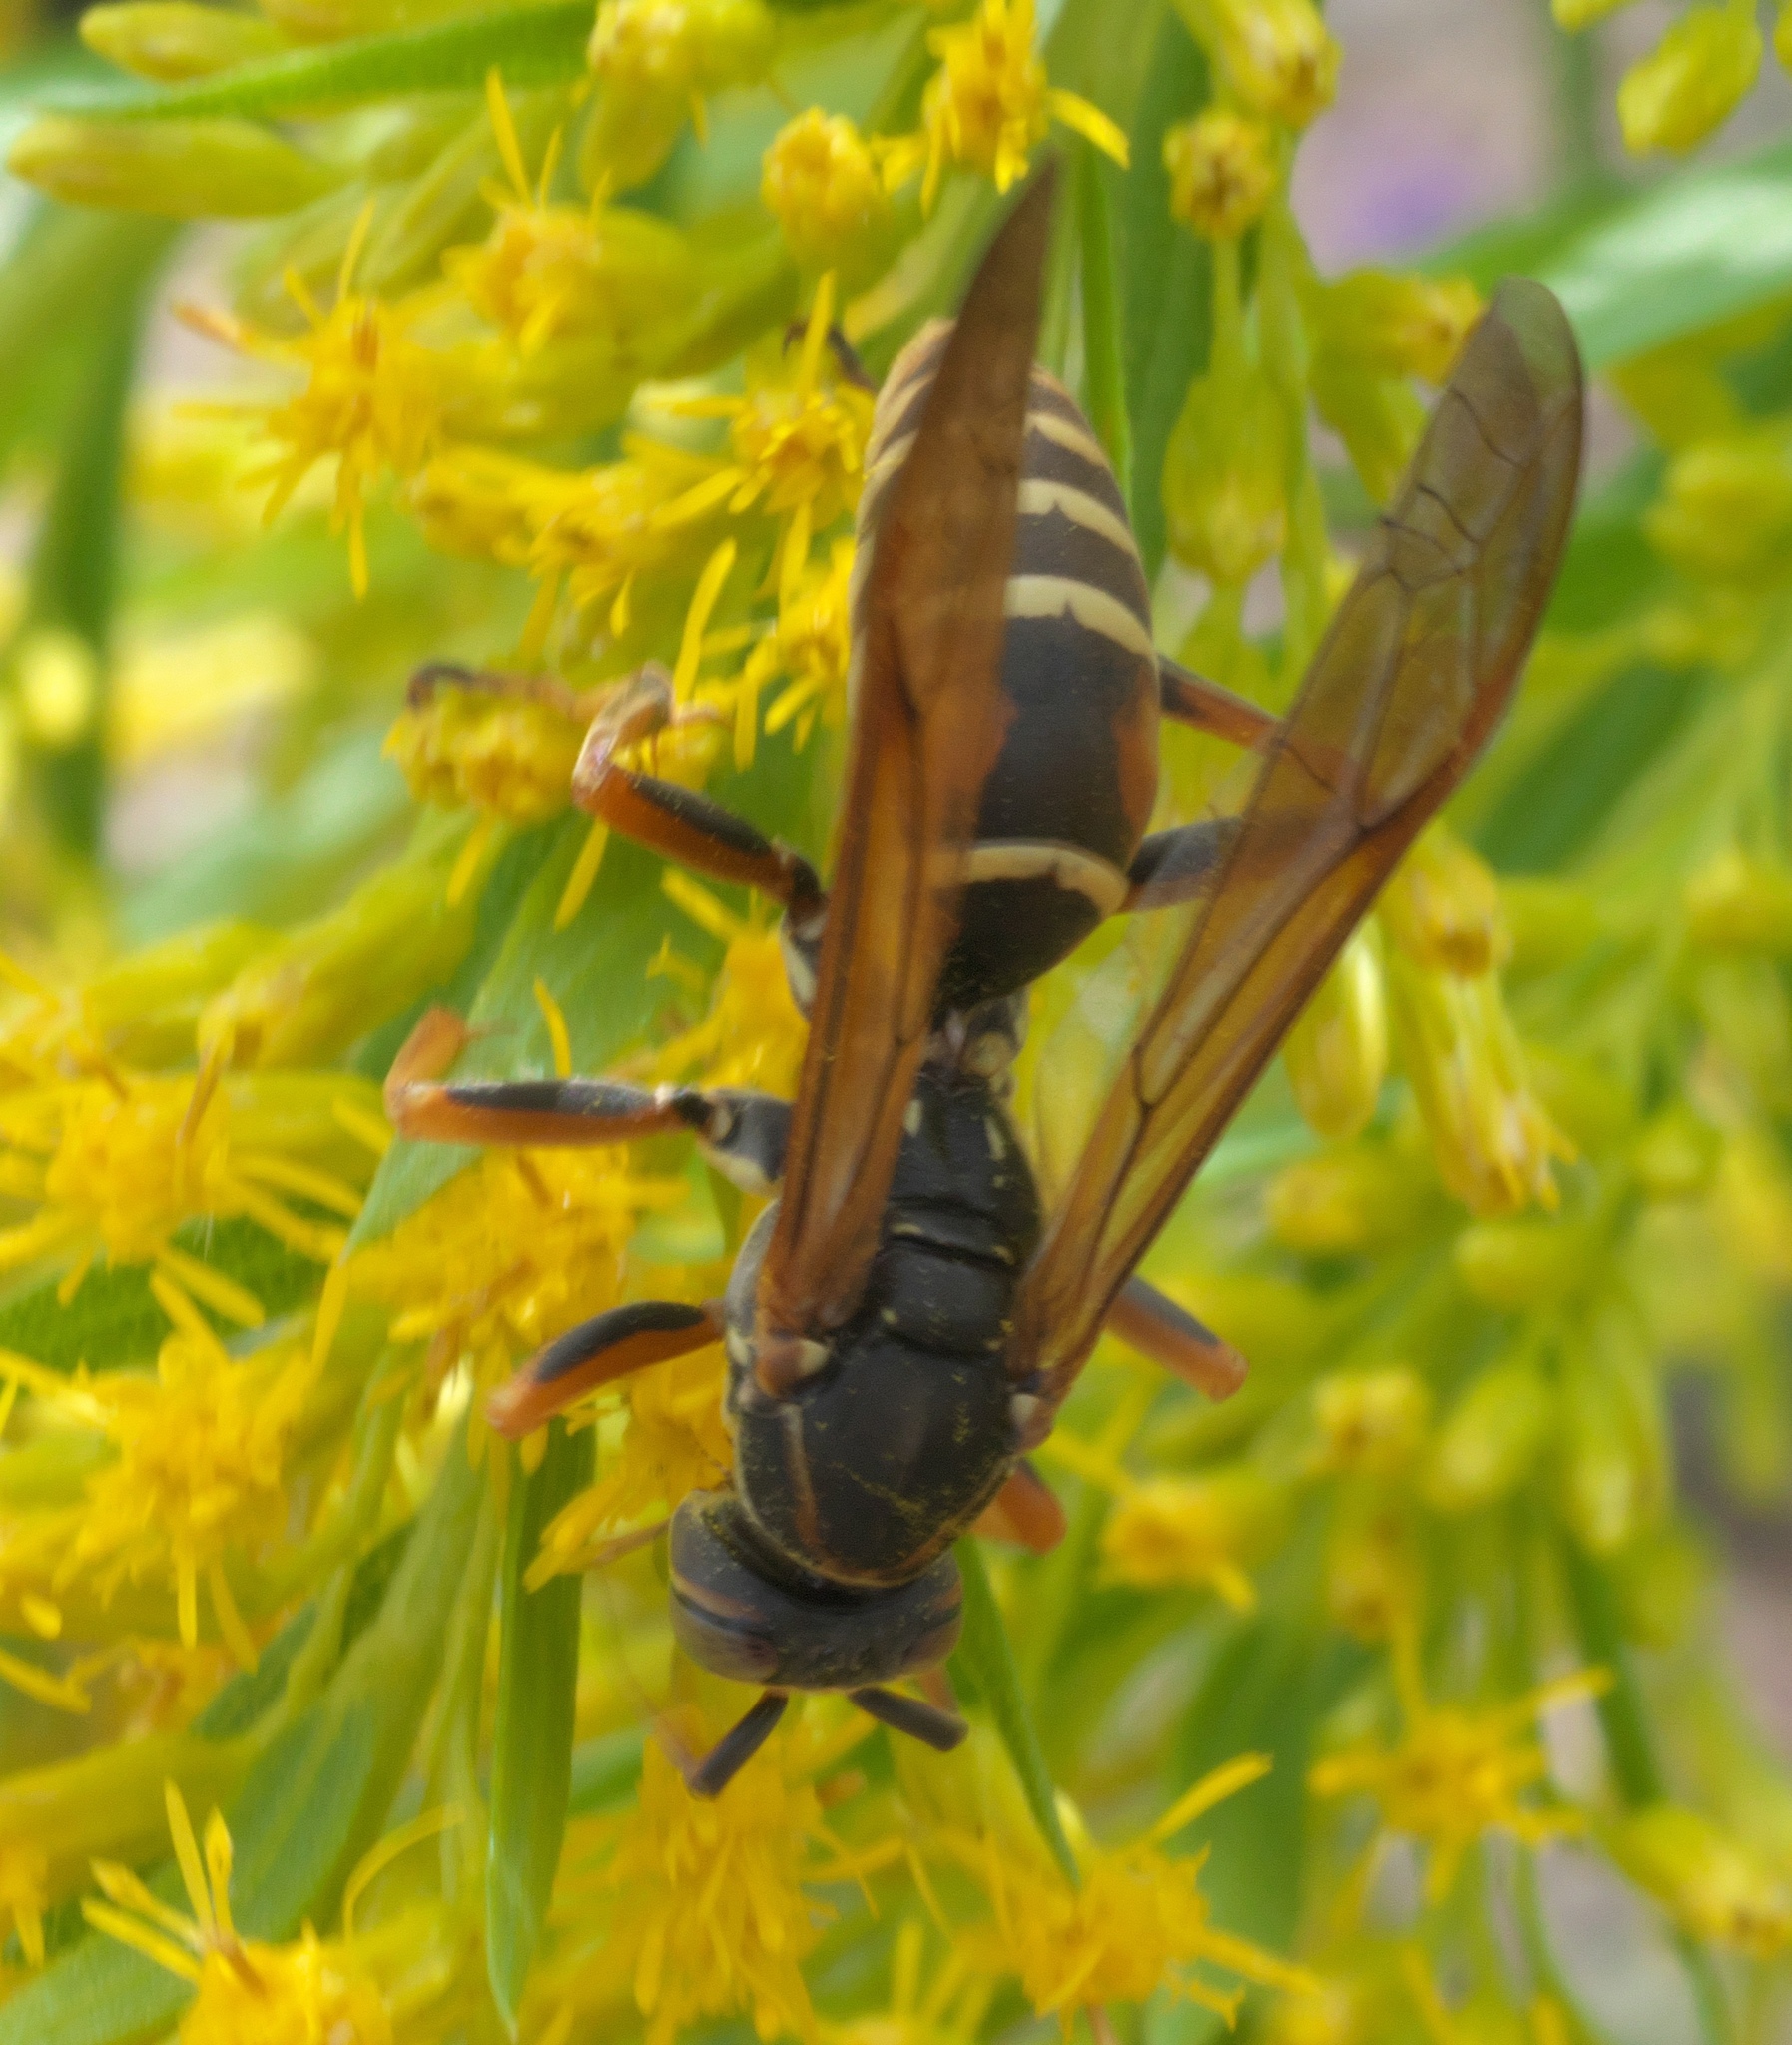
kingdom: Animalia
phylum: Arthropoda
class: Insecta
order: Hymenoptera
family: Eumenidae
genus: Polistes
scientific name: Polistes fuscatus
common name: Dark paper wasp
